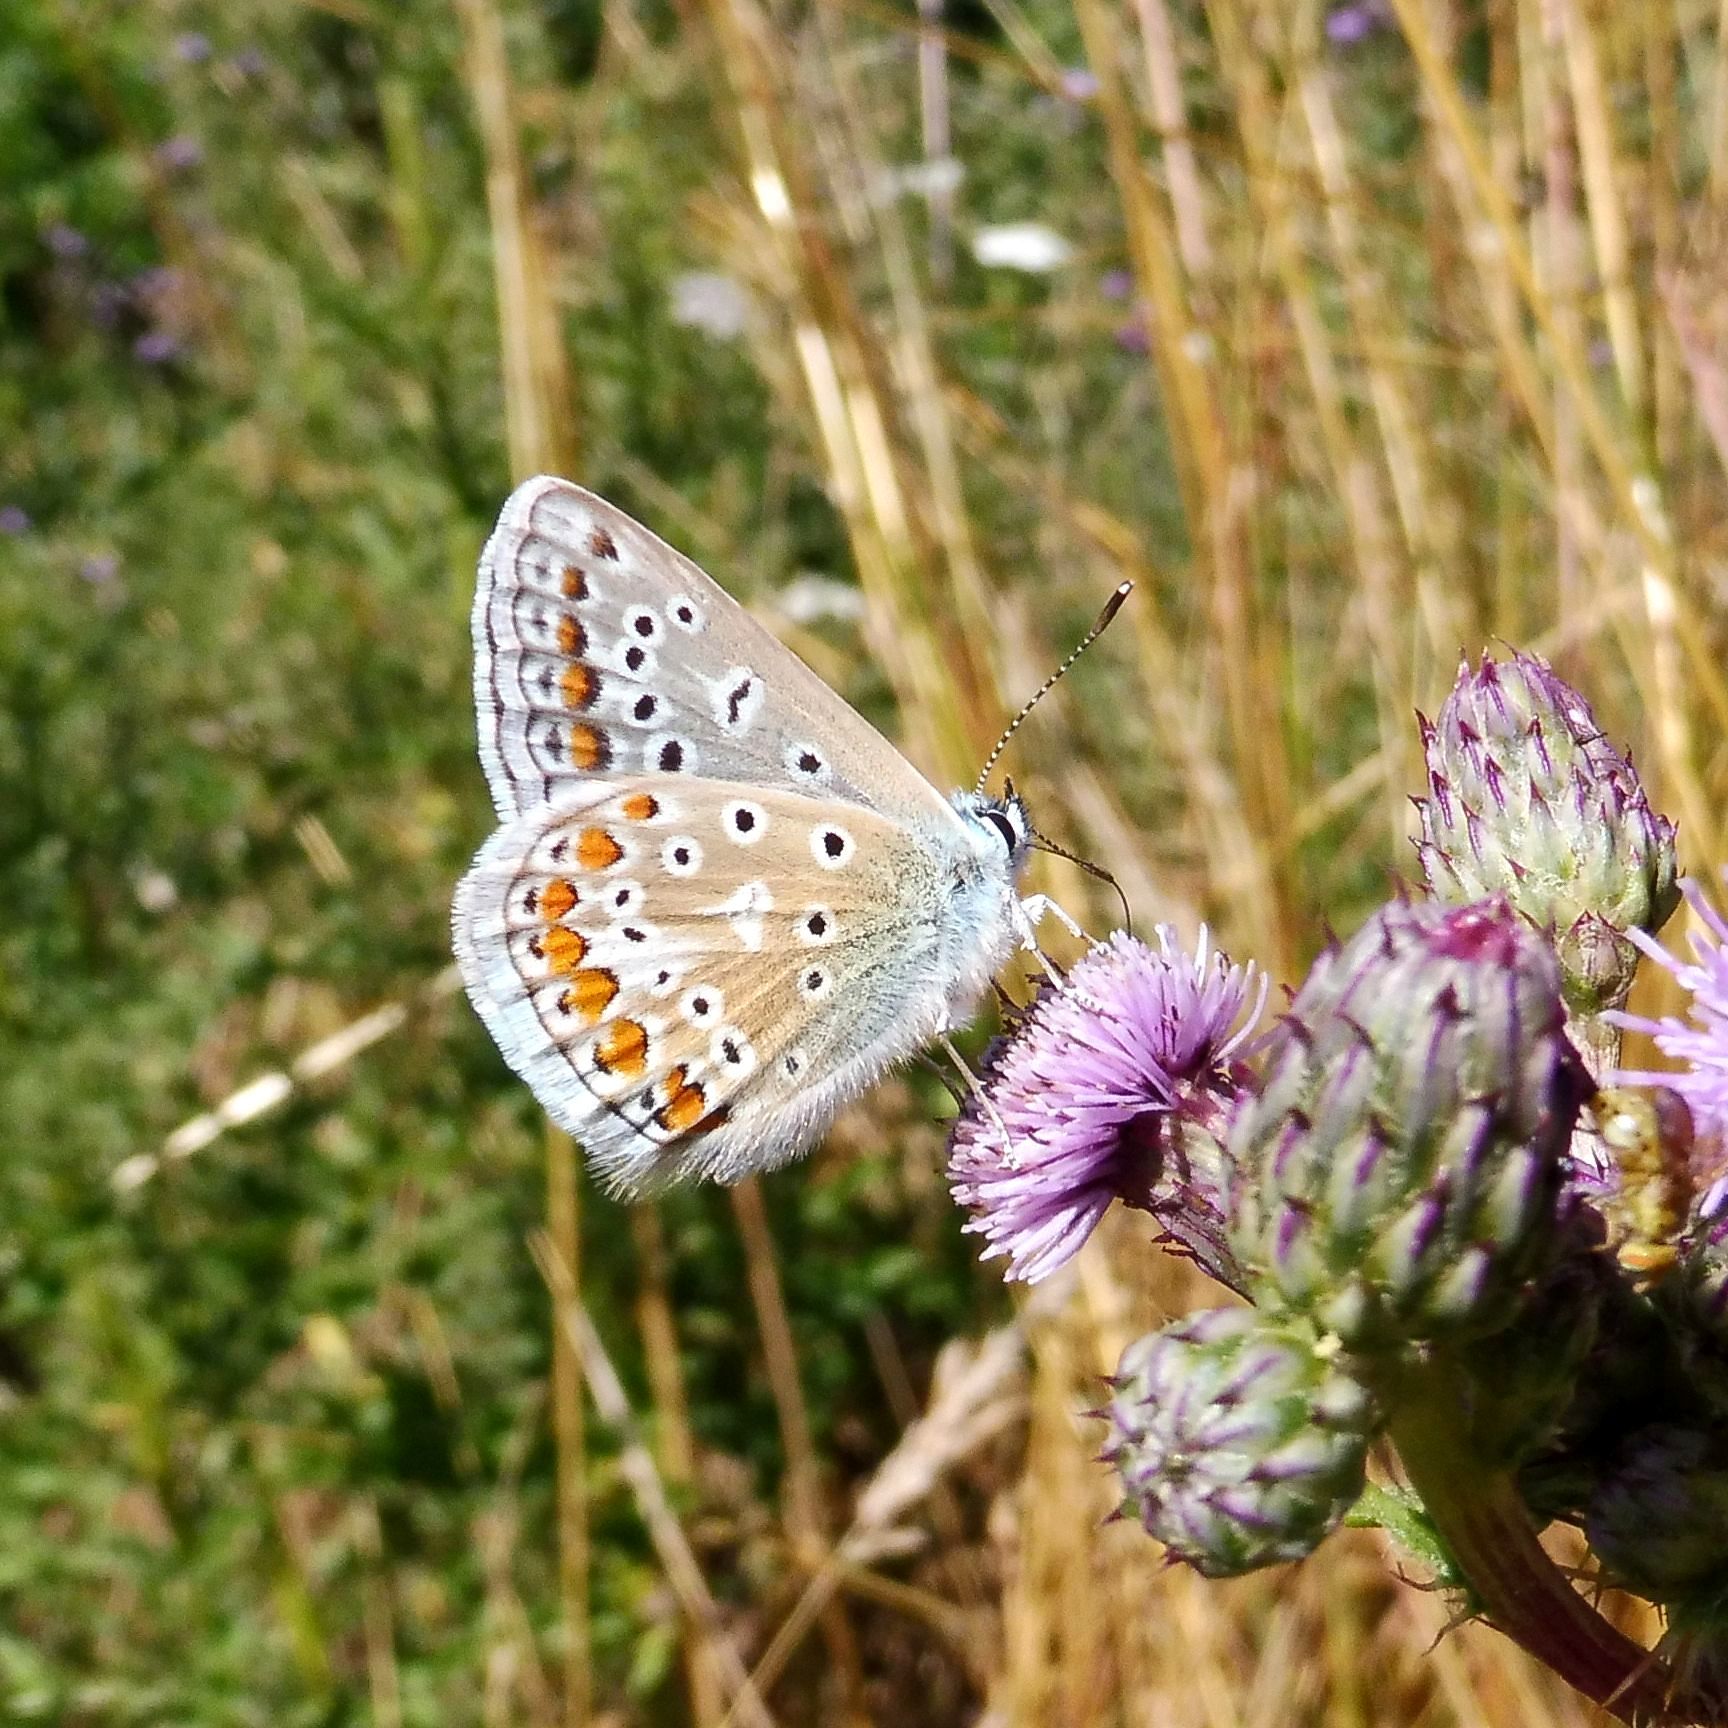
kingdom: Animalia
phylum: Arthropoda
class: Insecta
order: Lepidoptera
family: Lycaenidae
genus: Polyommatus
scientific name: Polyommatus icarus
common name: Common blue
